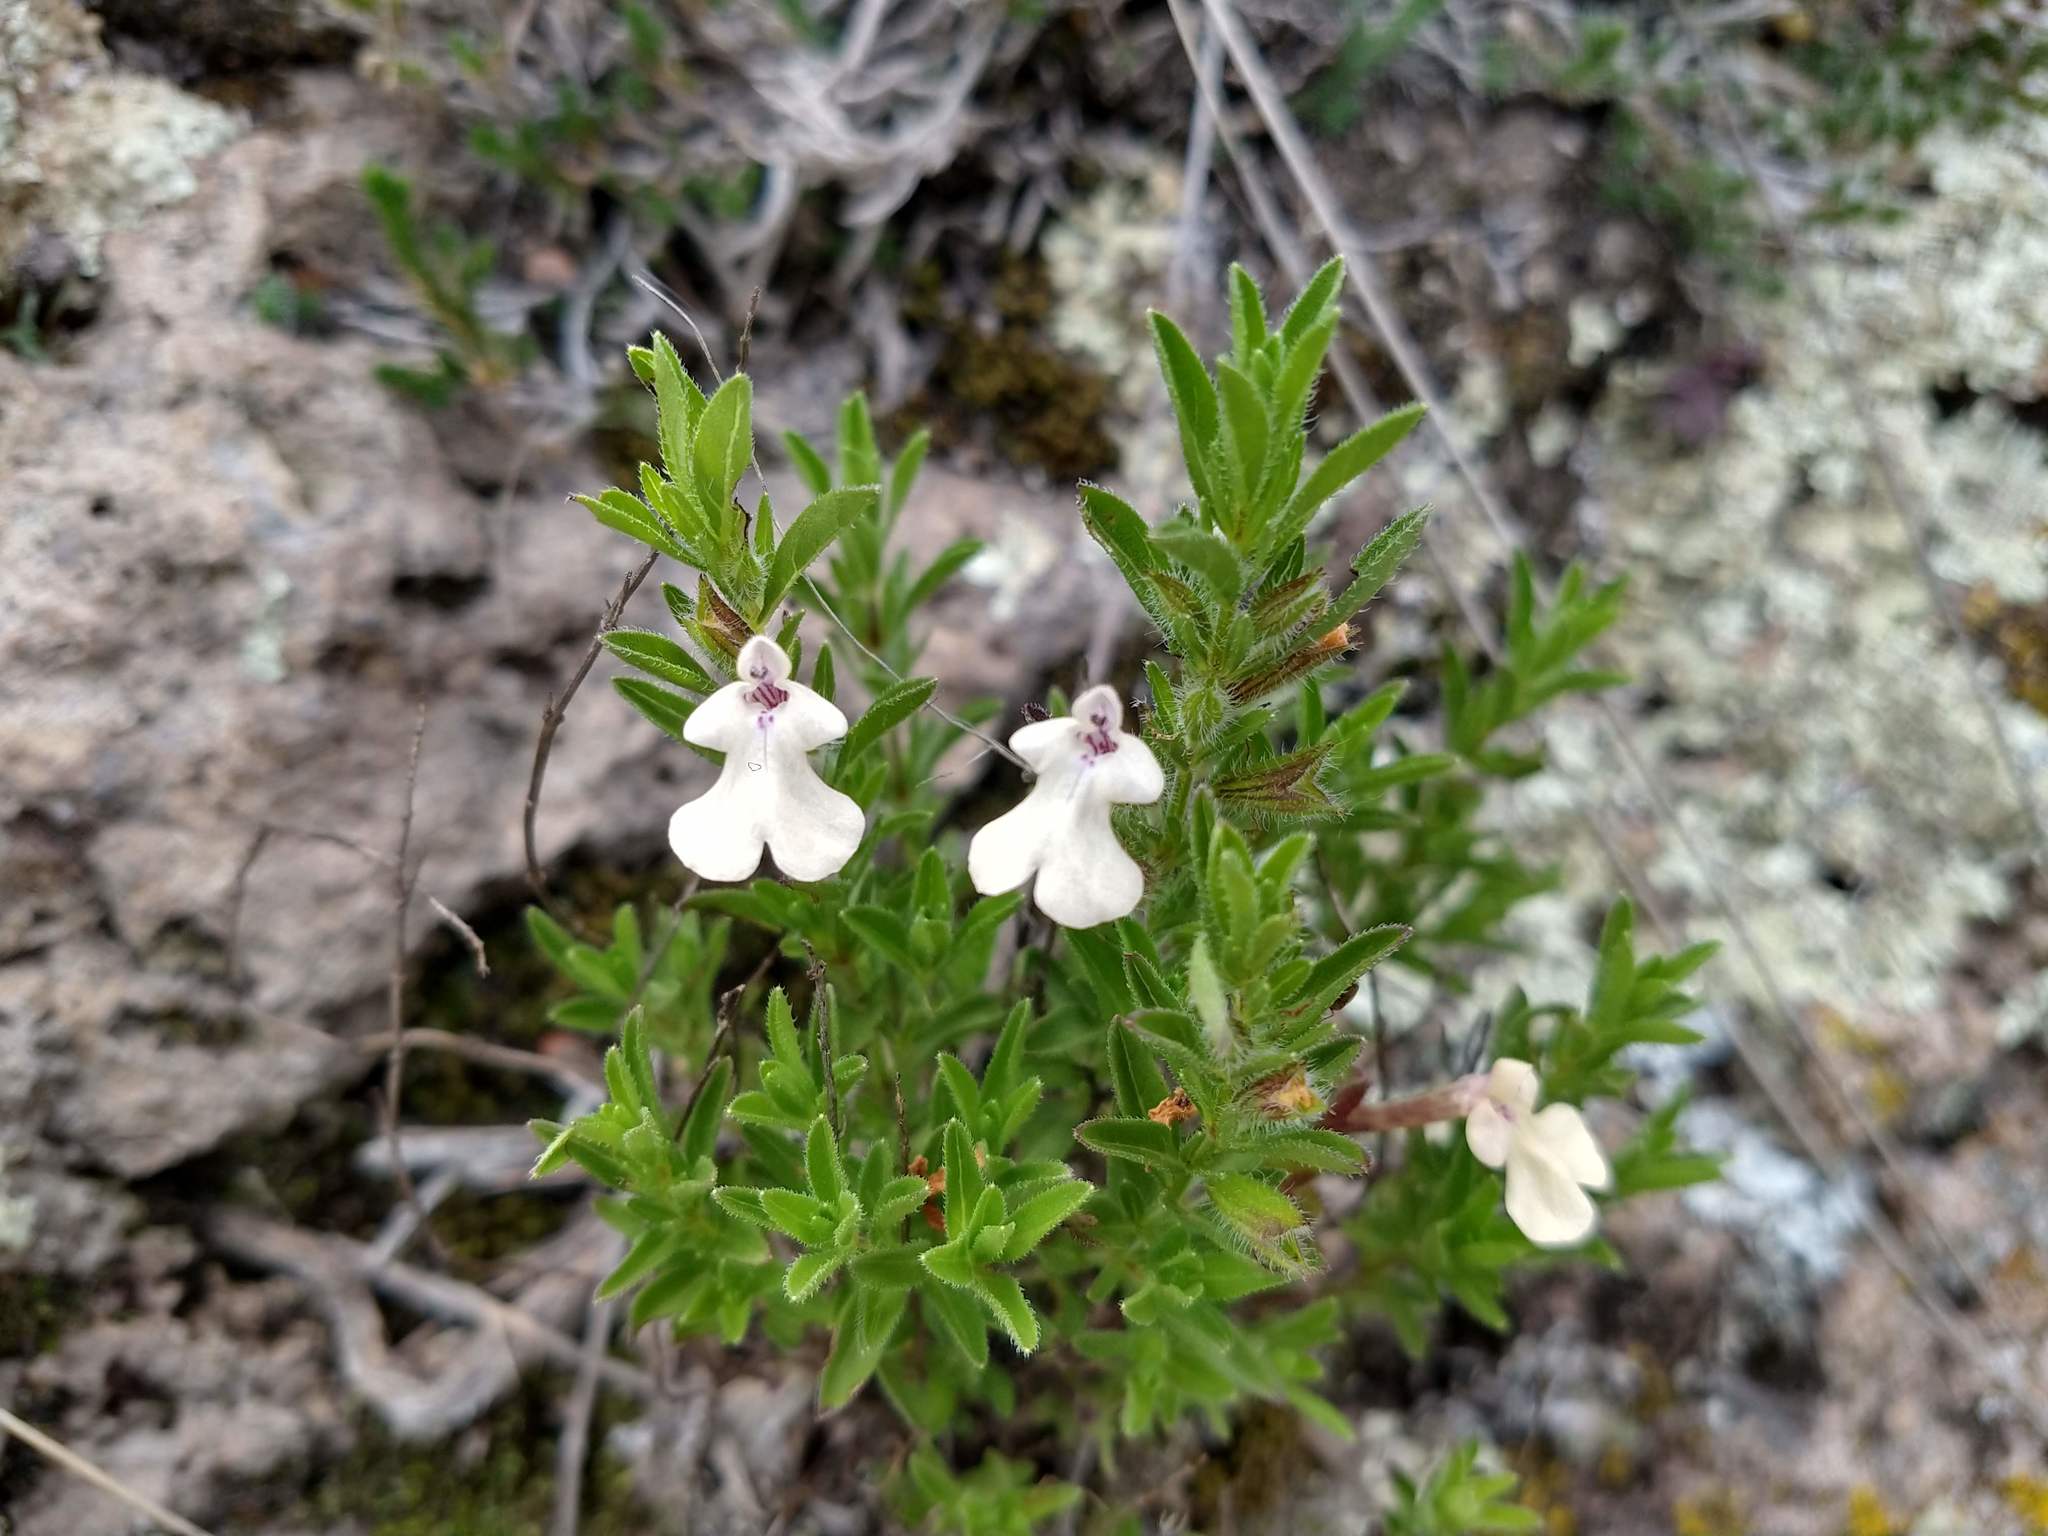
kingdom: Plantae
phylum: Tracheophyta
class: Magnoliopsida
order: Lamiales
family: Lamiaceae
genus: Salvia
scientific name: Salvia axillaris
